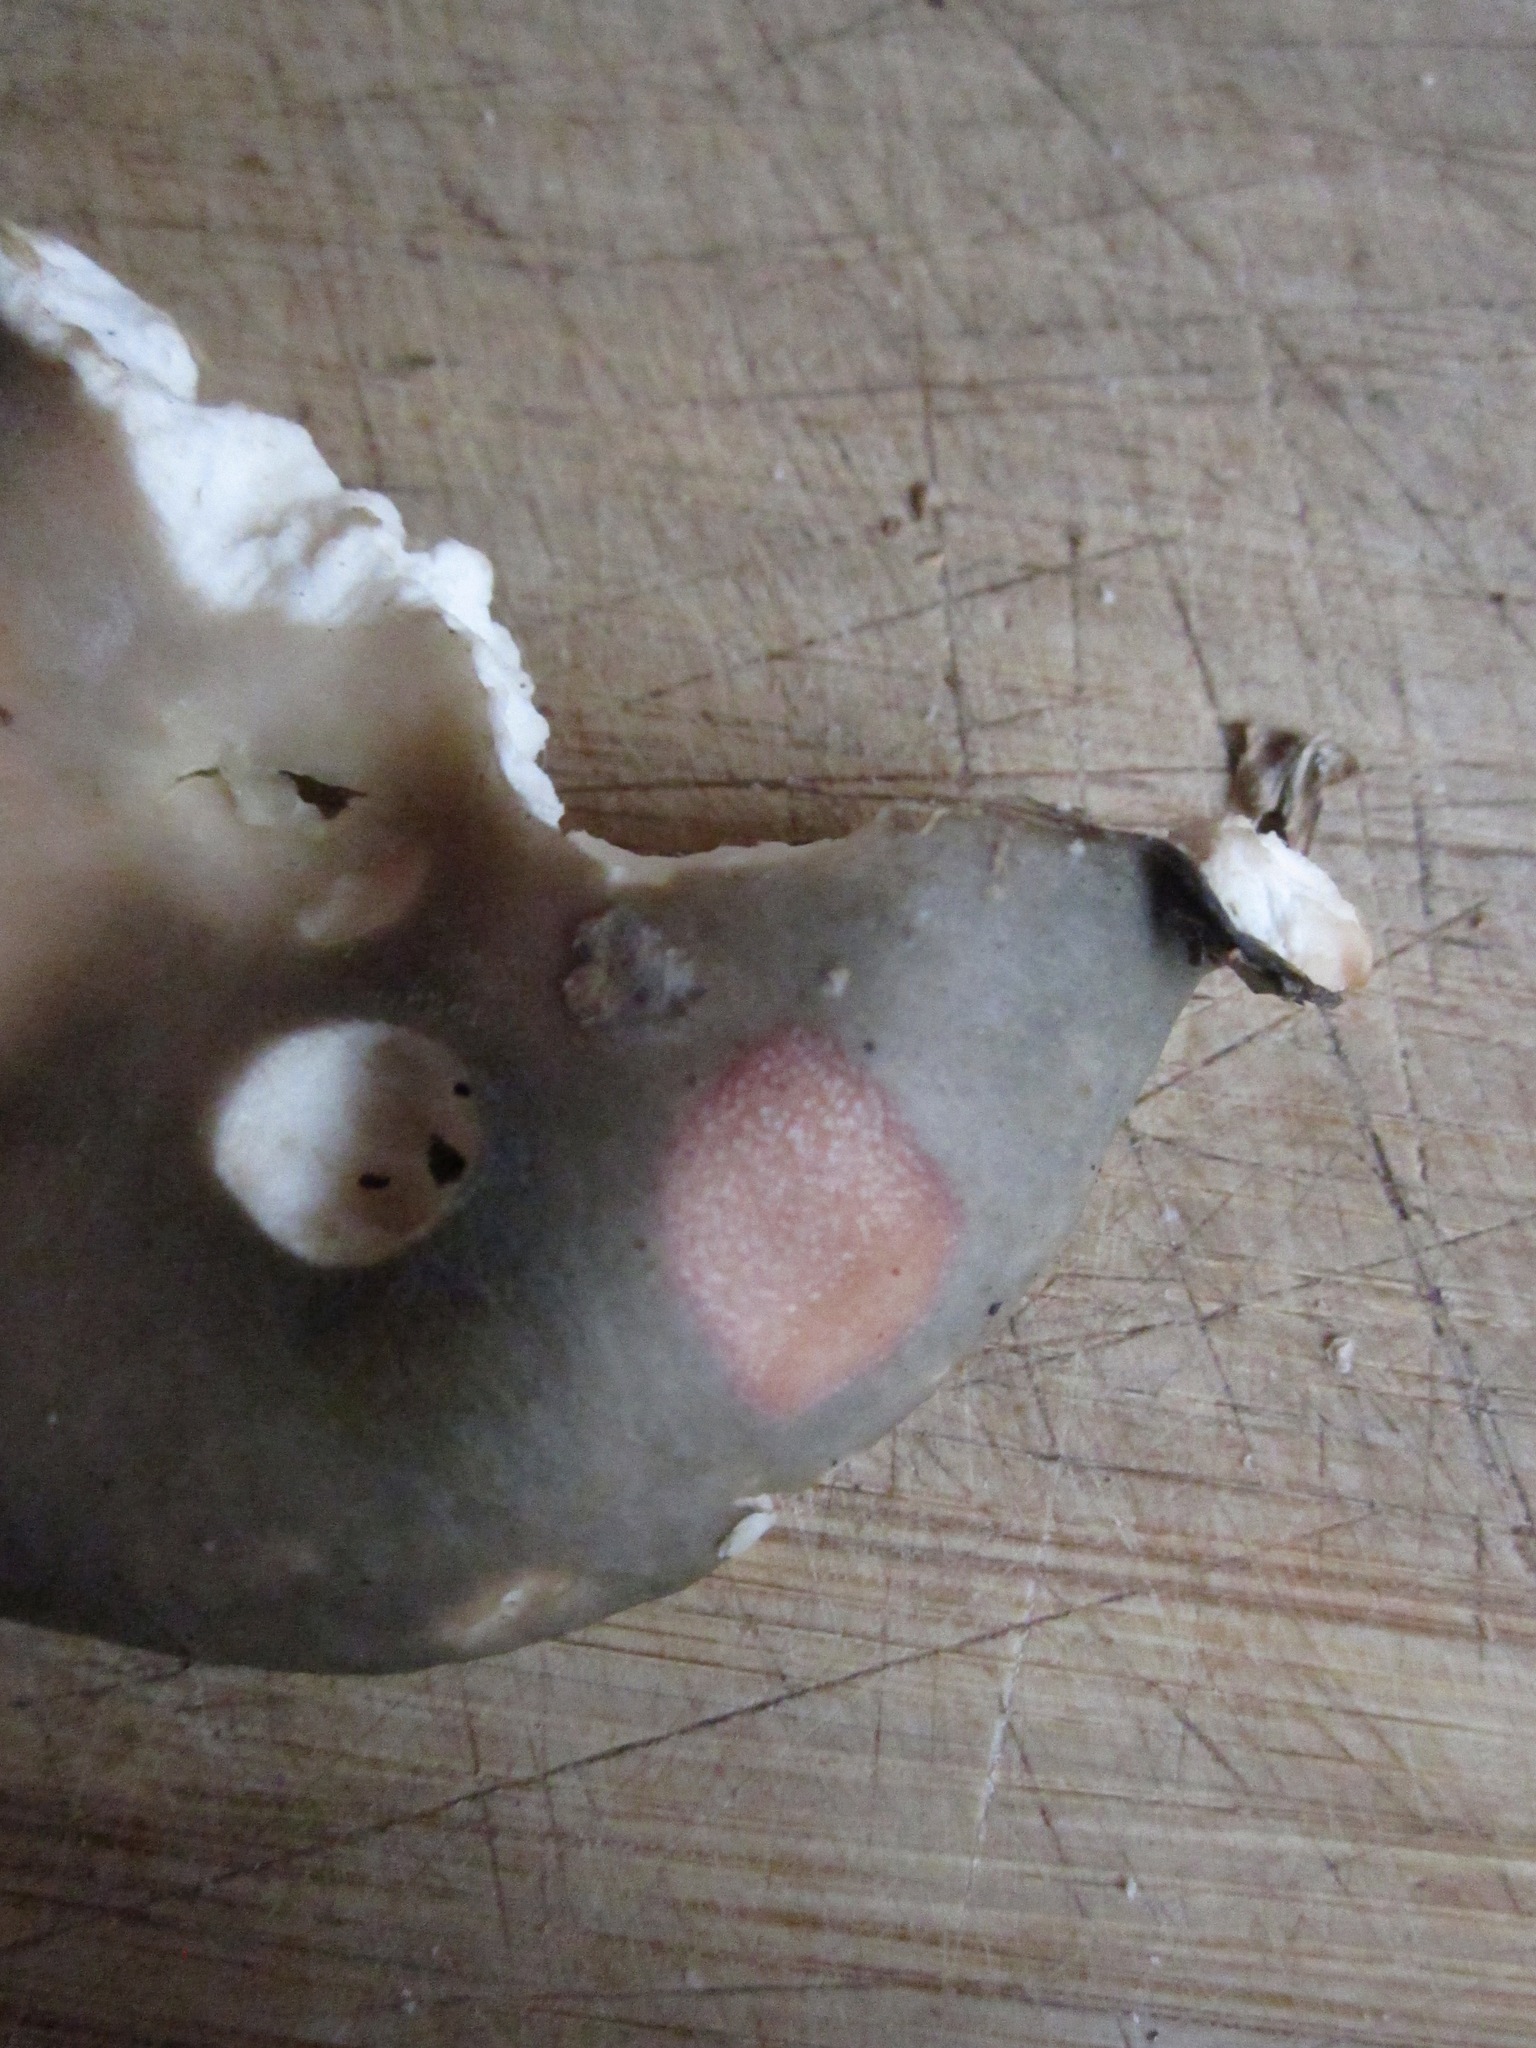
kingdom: Fungi
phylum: Basidiomycota
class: Agaricomycetes
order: Russulales
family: Russulaceae
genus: Russula
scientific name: Russula grisea
